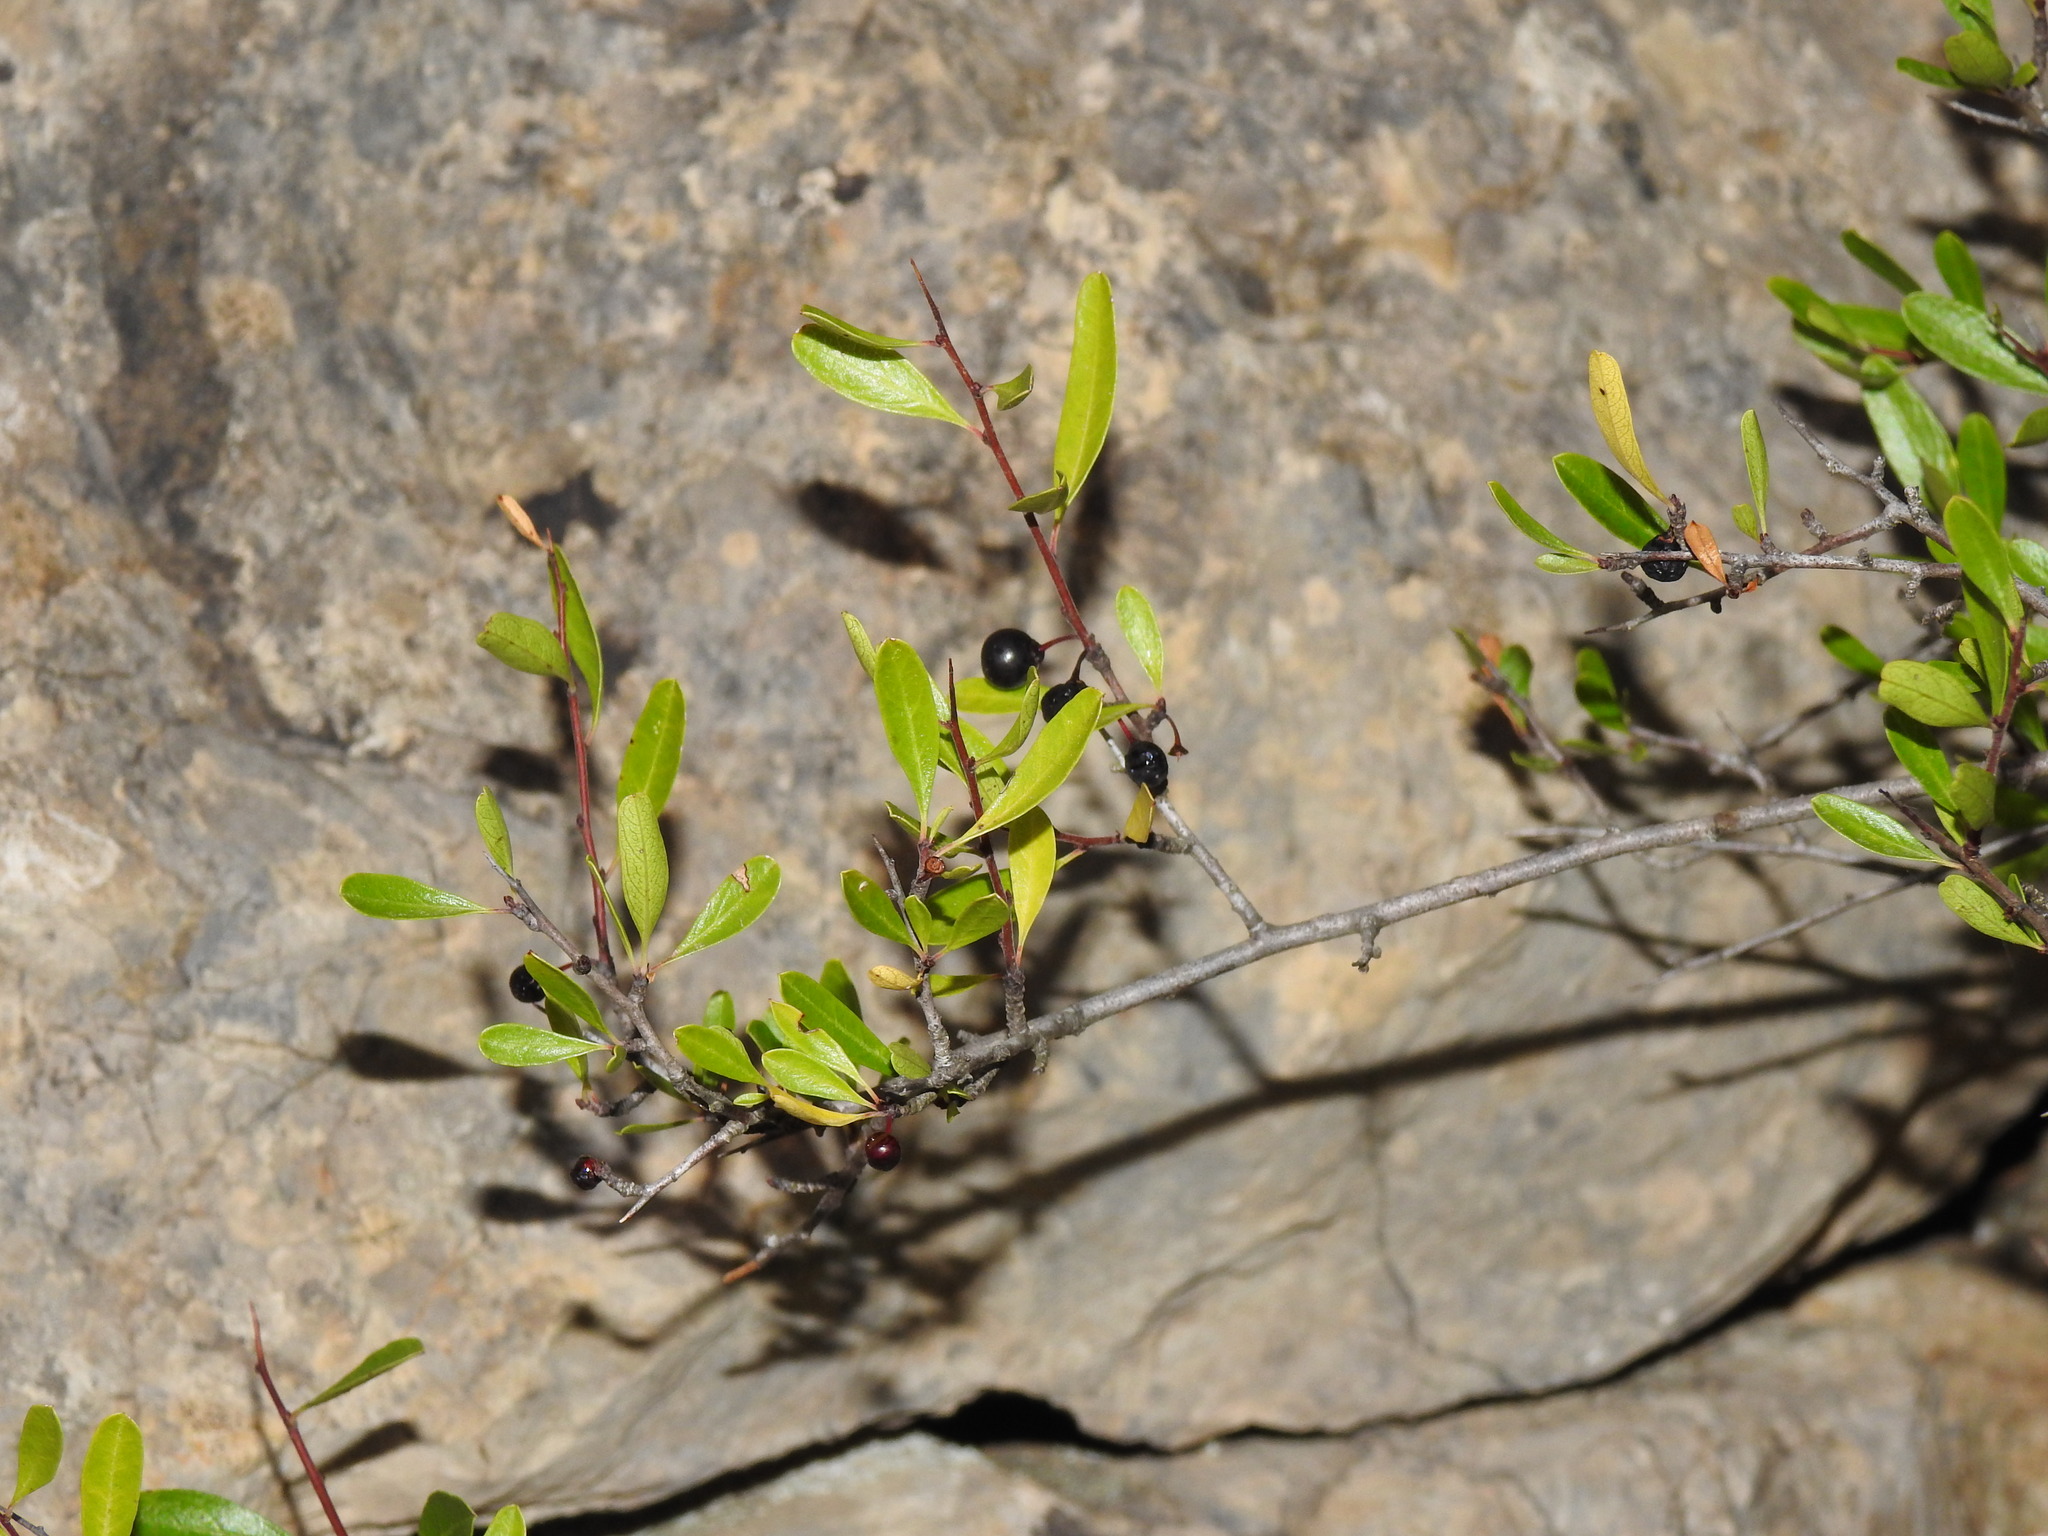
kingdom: Plantae
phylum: Tracheophyta
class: Magnoliopsida
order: Rosales
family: Rhamnaceae
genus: Rhamnus
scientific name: Rhamnus oleoides
